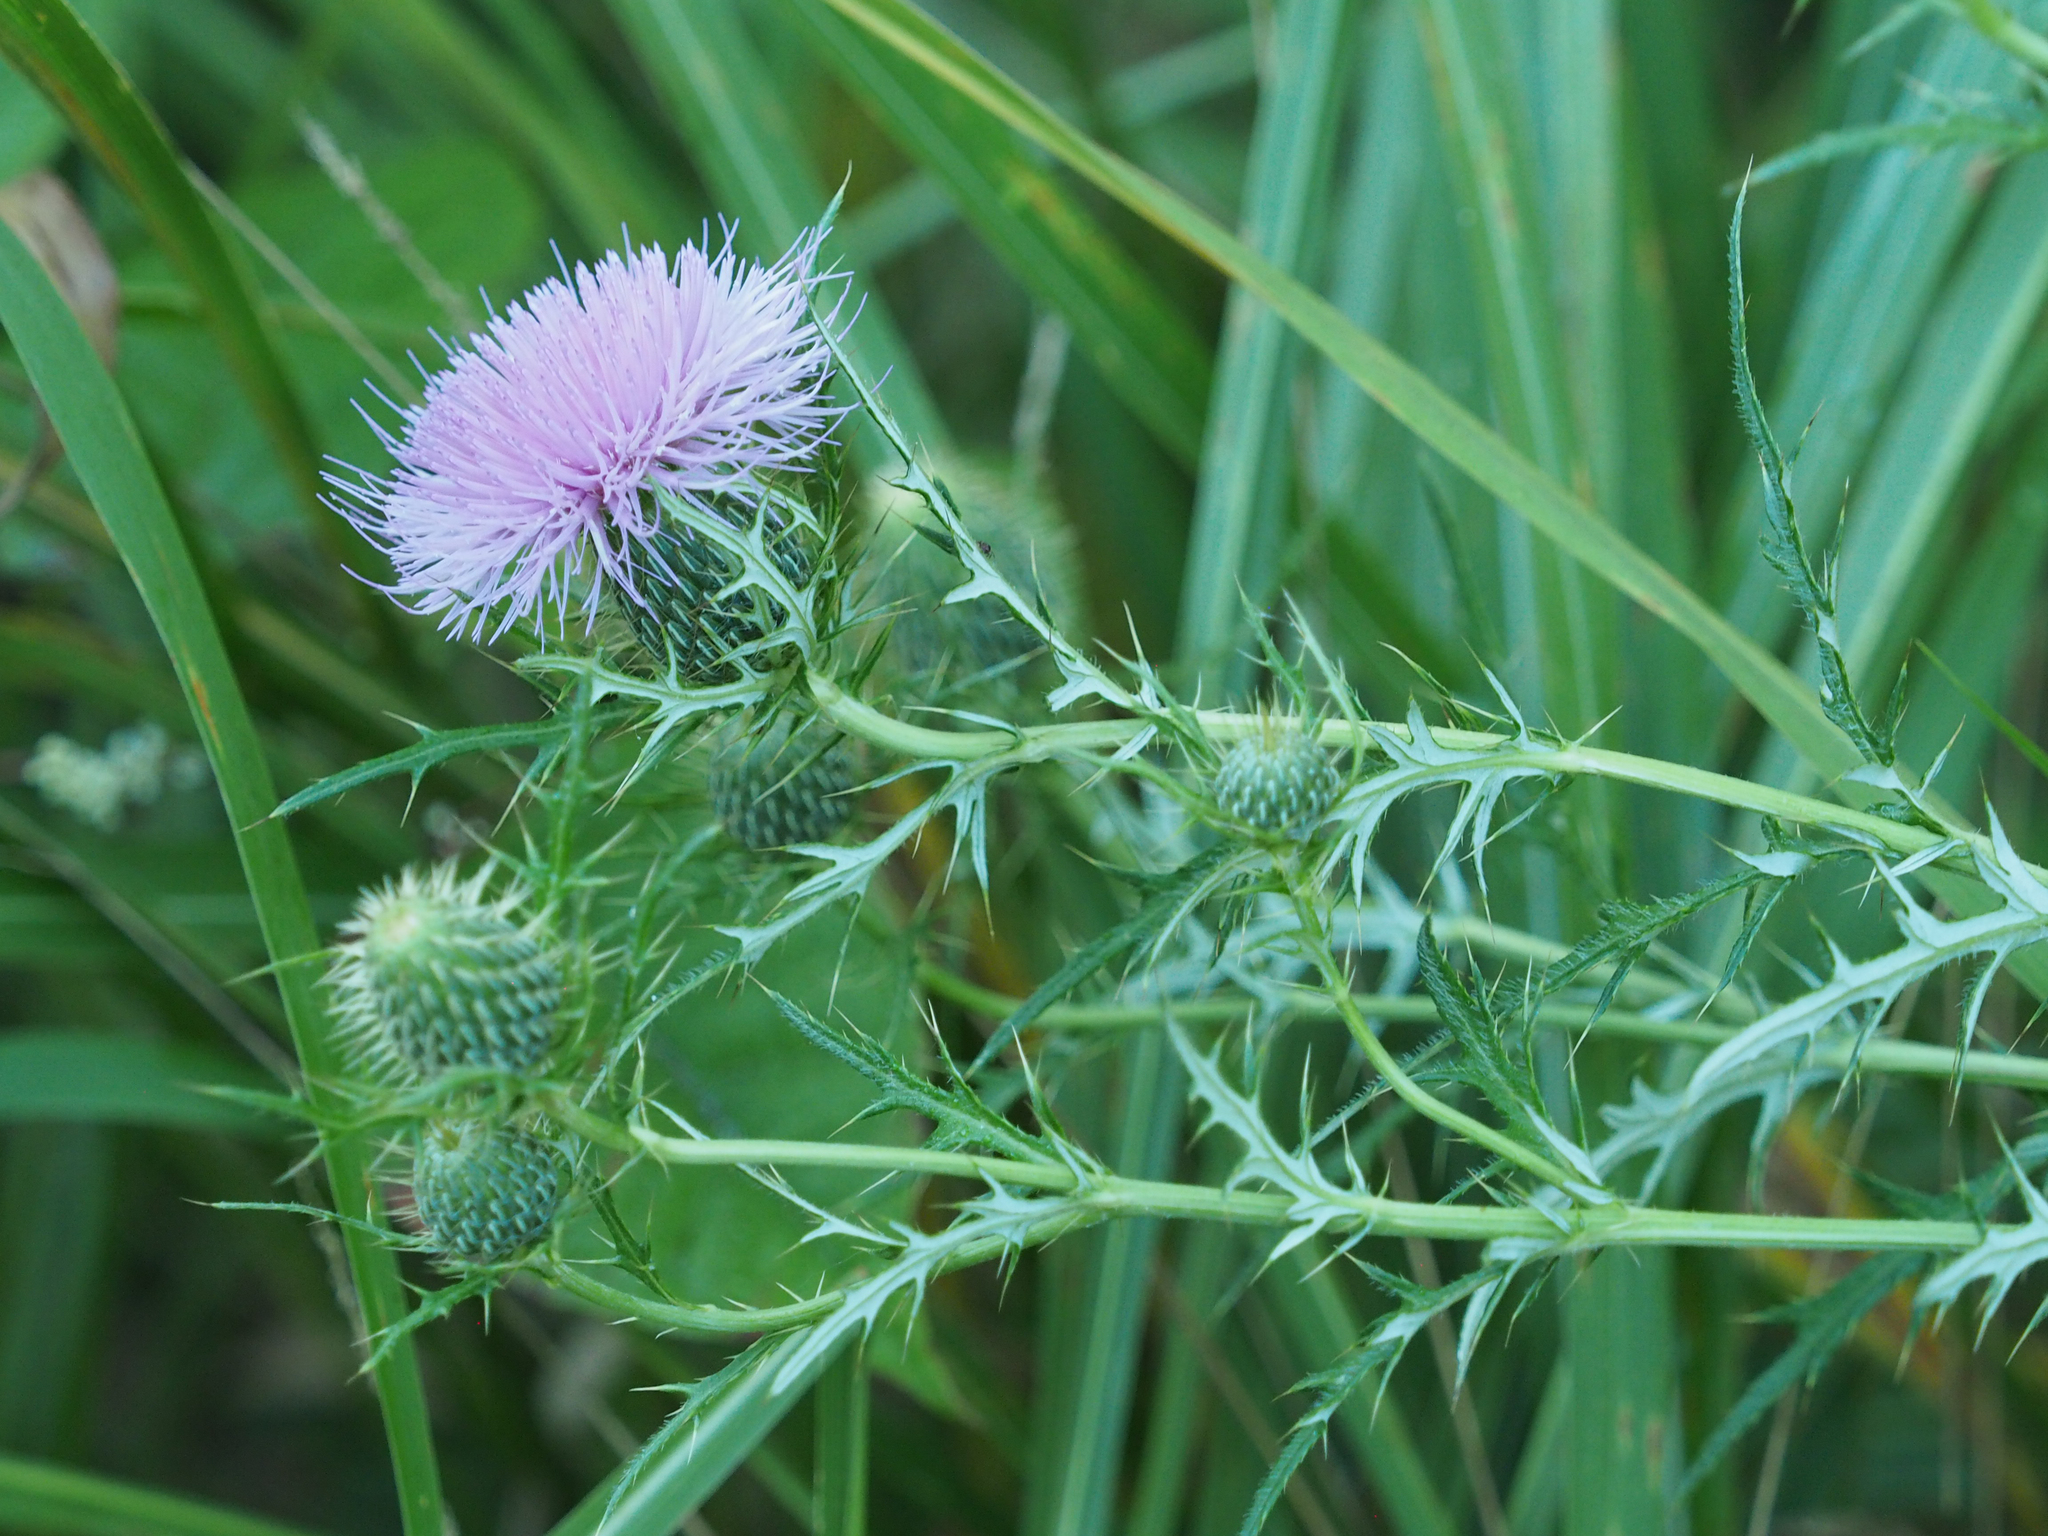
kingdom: Plantae
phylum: Tracheophyta
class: Magnoliopsida
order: Asterales
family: Asteraceae
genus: Cirsium
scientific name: Cirsium discolor
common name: Field thistle
